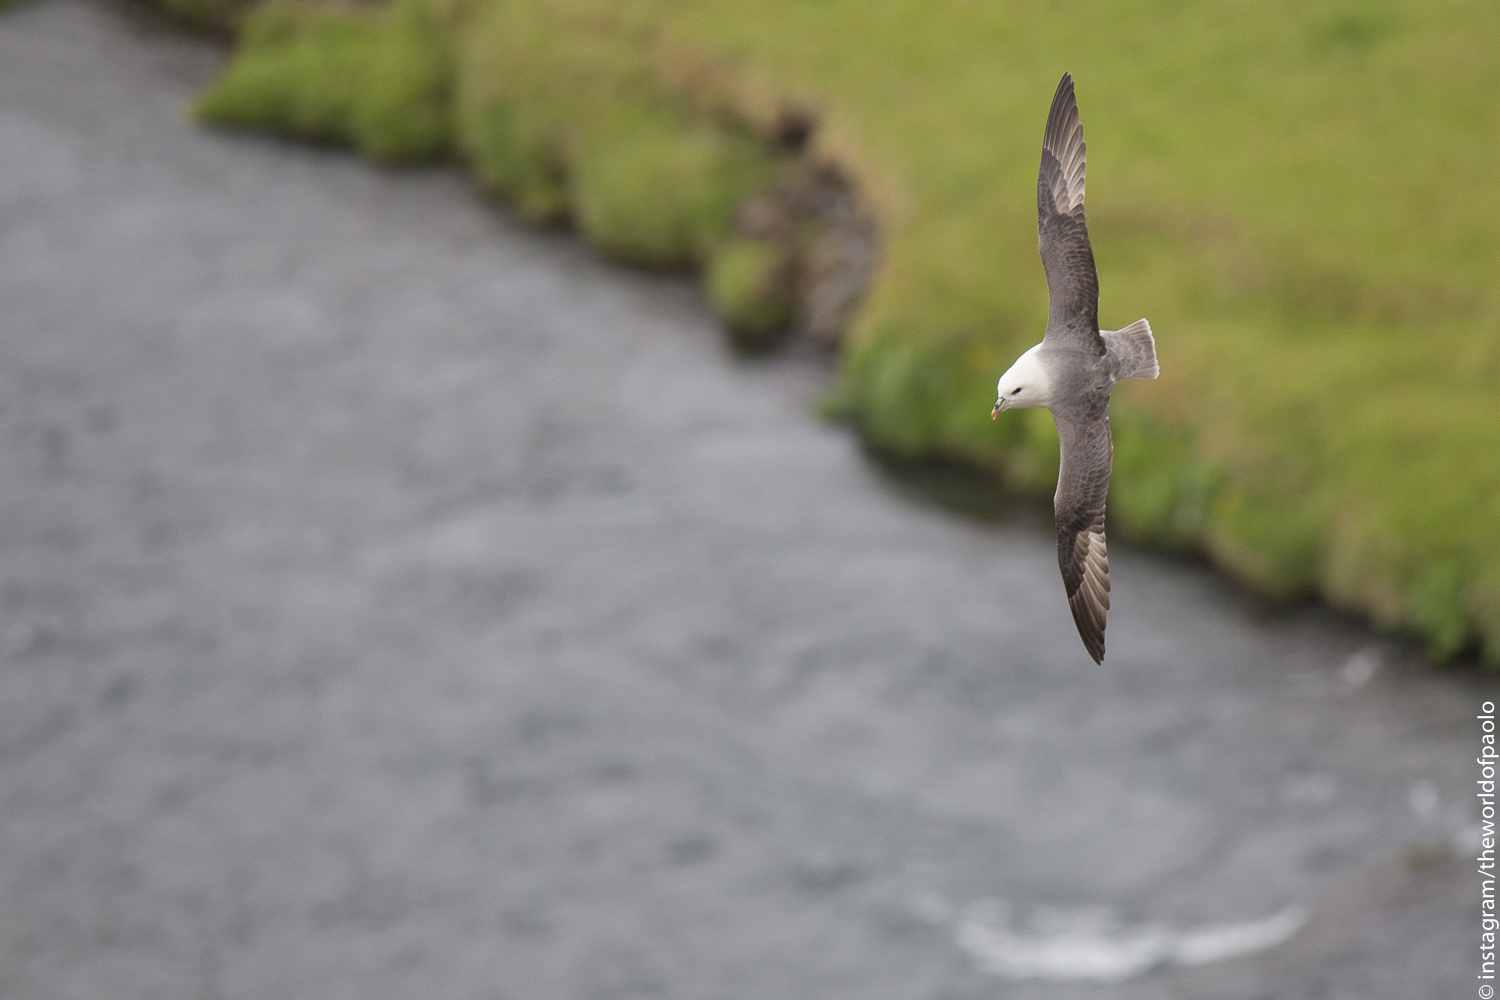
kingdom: Animalia
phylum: Chordata
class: Aves
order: Procellariiformes
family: Procellariidae
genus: Fulmarus
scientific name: Fulmarus glacialis
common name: Northern fulmar
